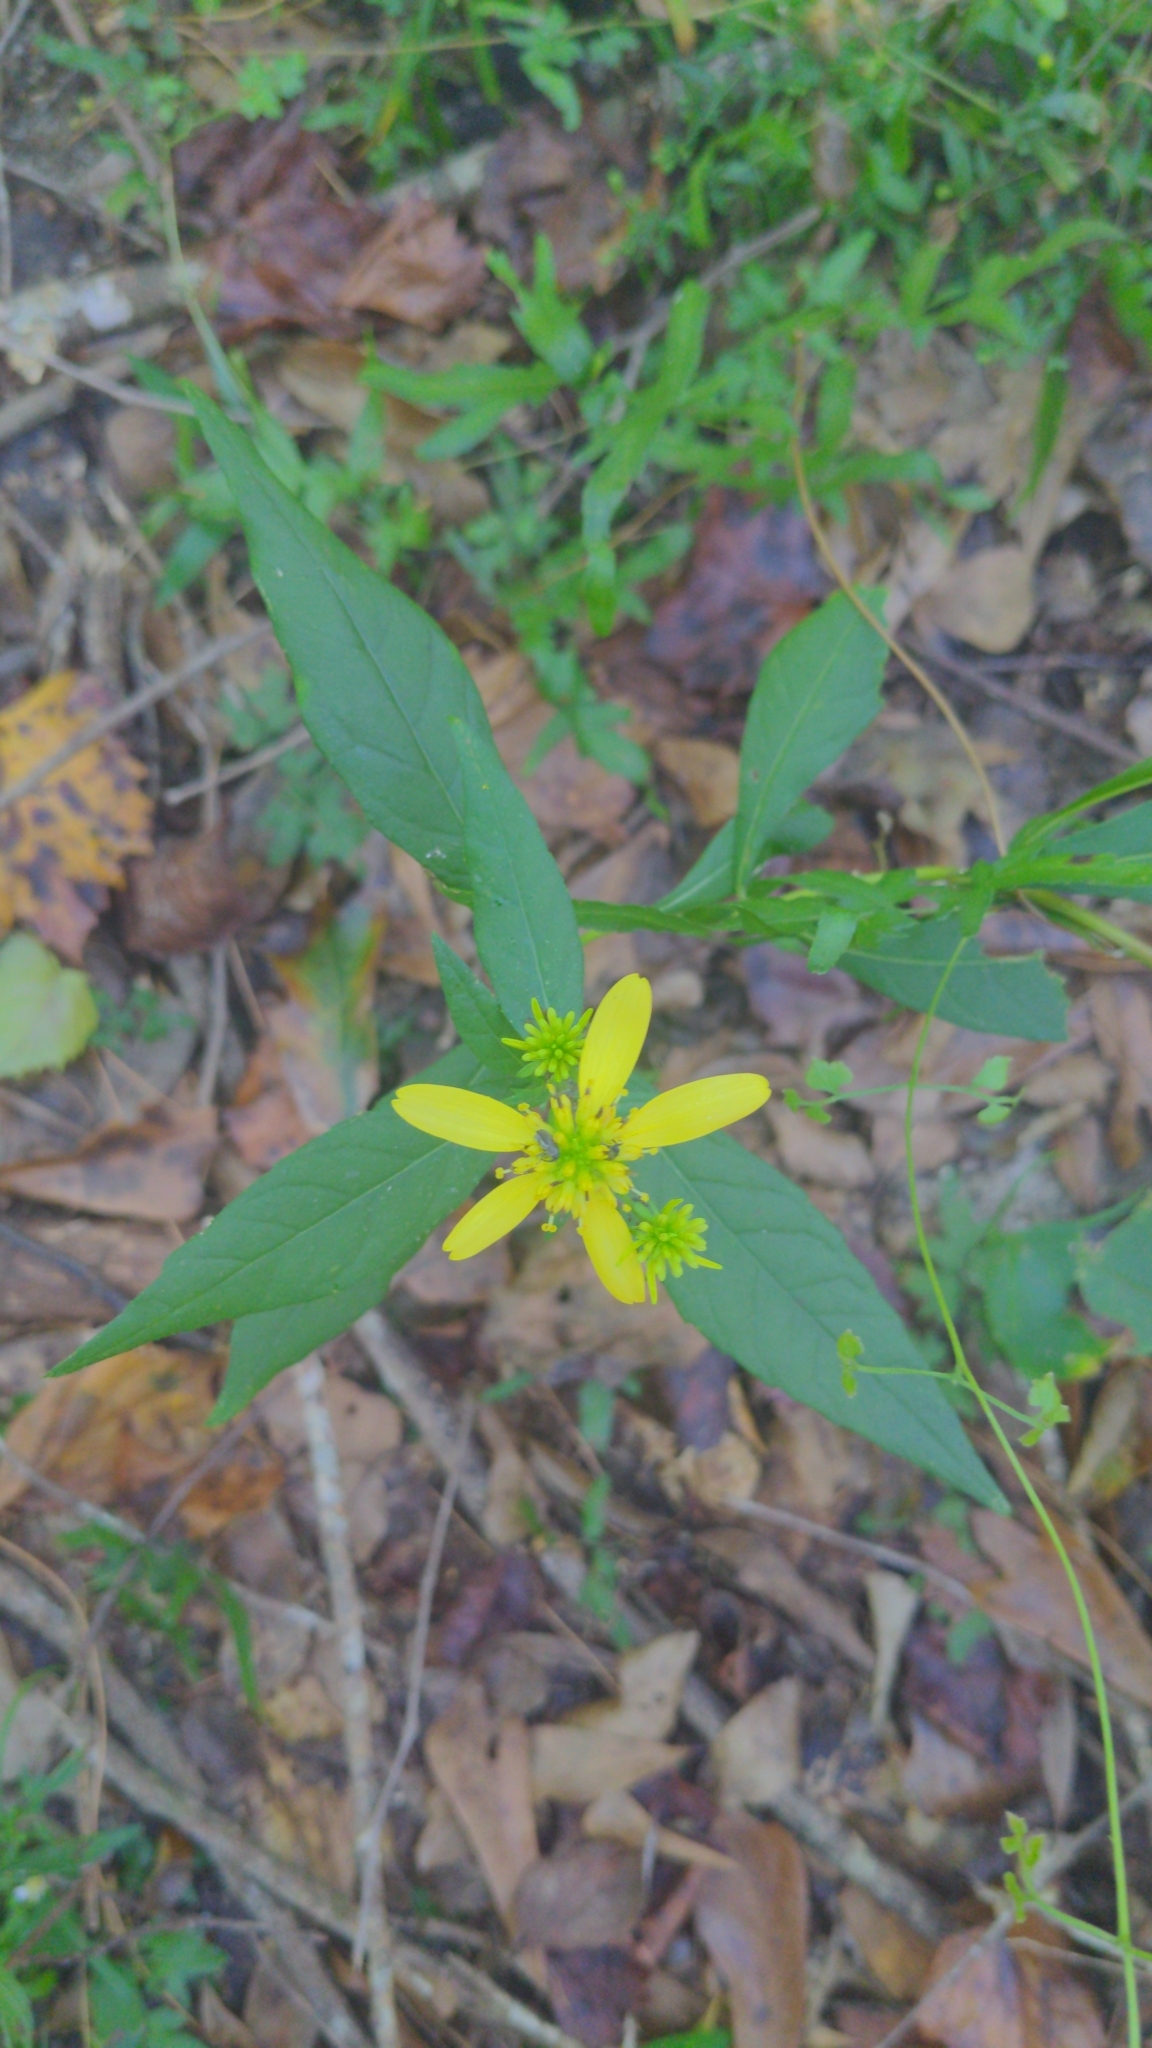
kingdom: Plantae
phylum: Tracheophyta
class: Magnoliopsida
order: Asterales
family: Asteraceae
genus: Verbesina
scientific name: Verbesina alternifolia
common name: Wingstem
